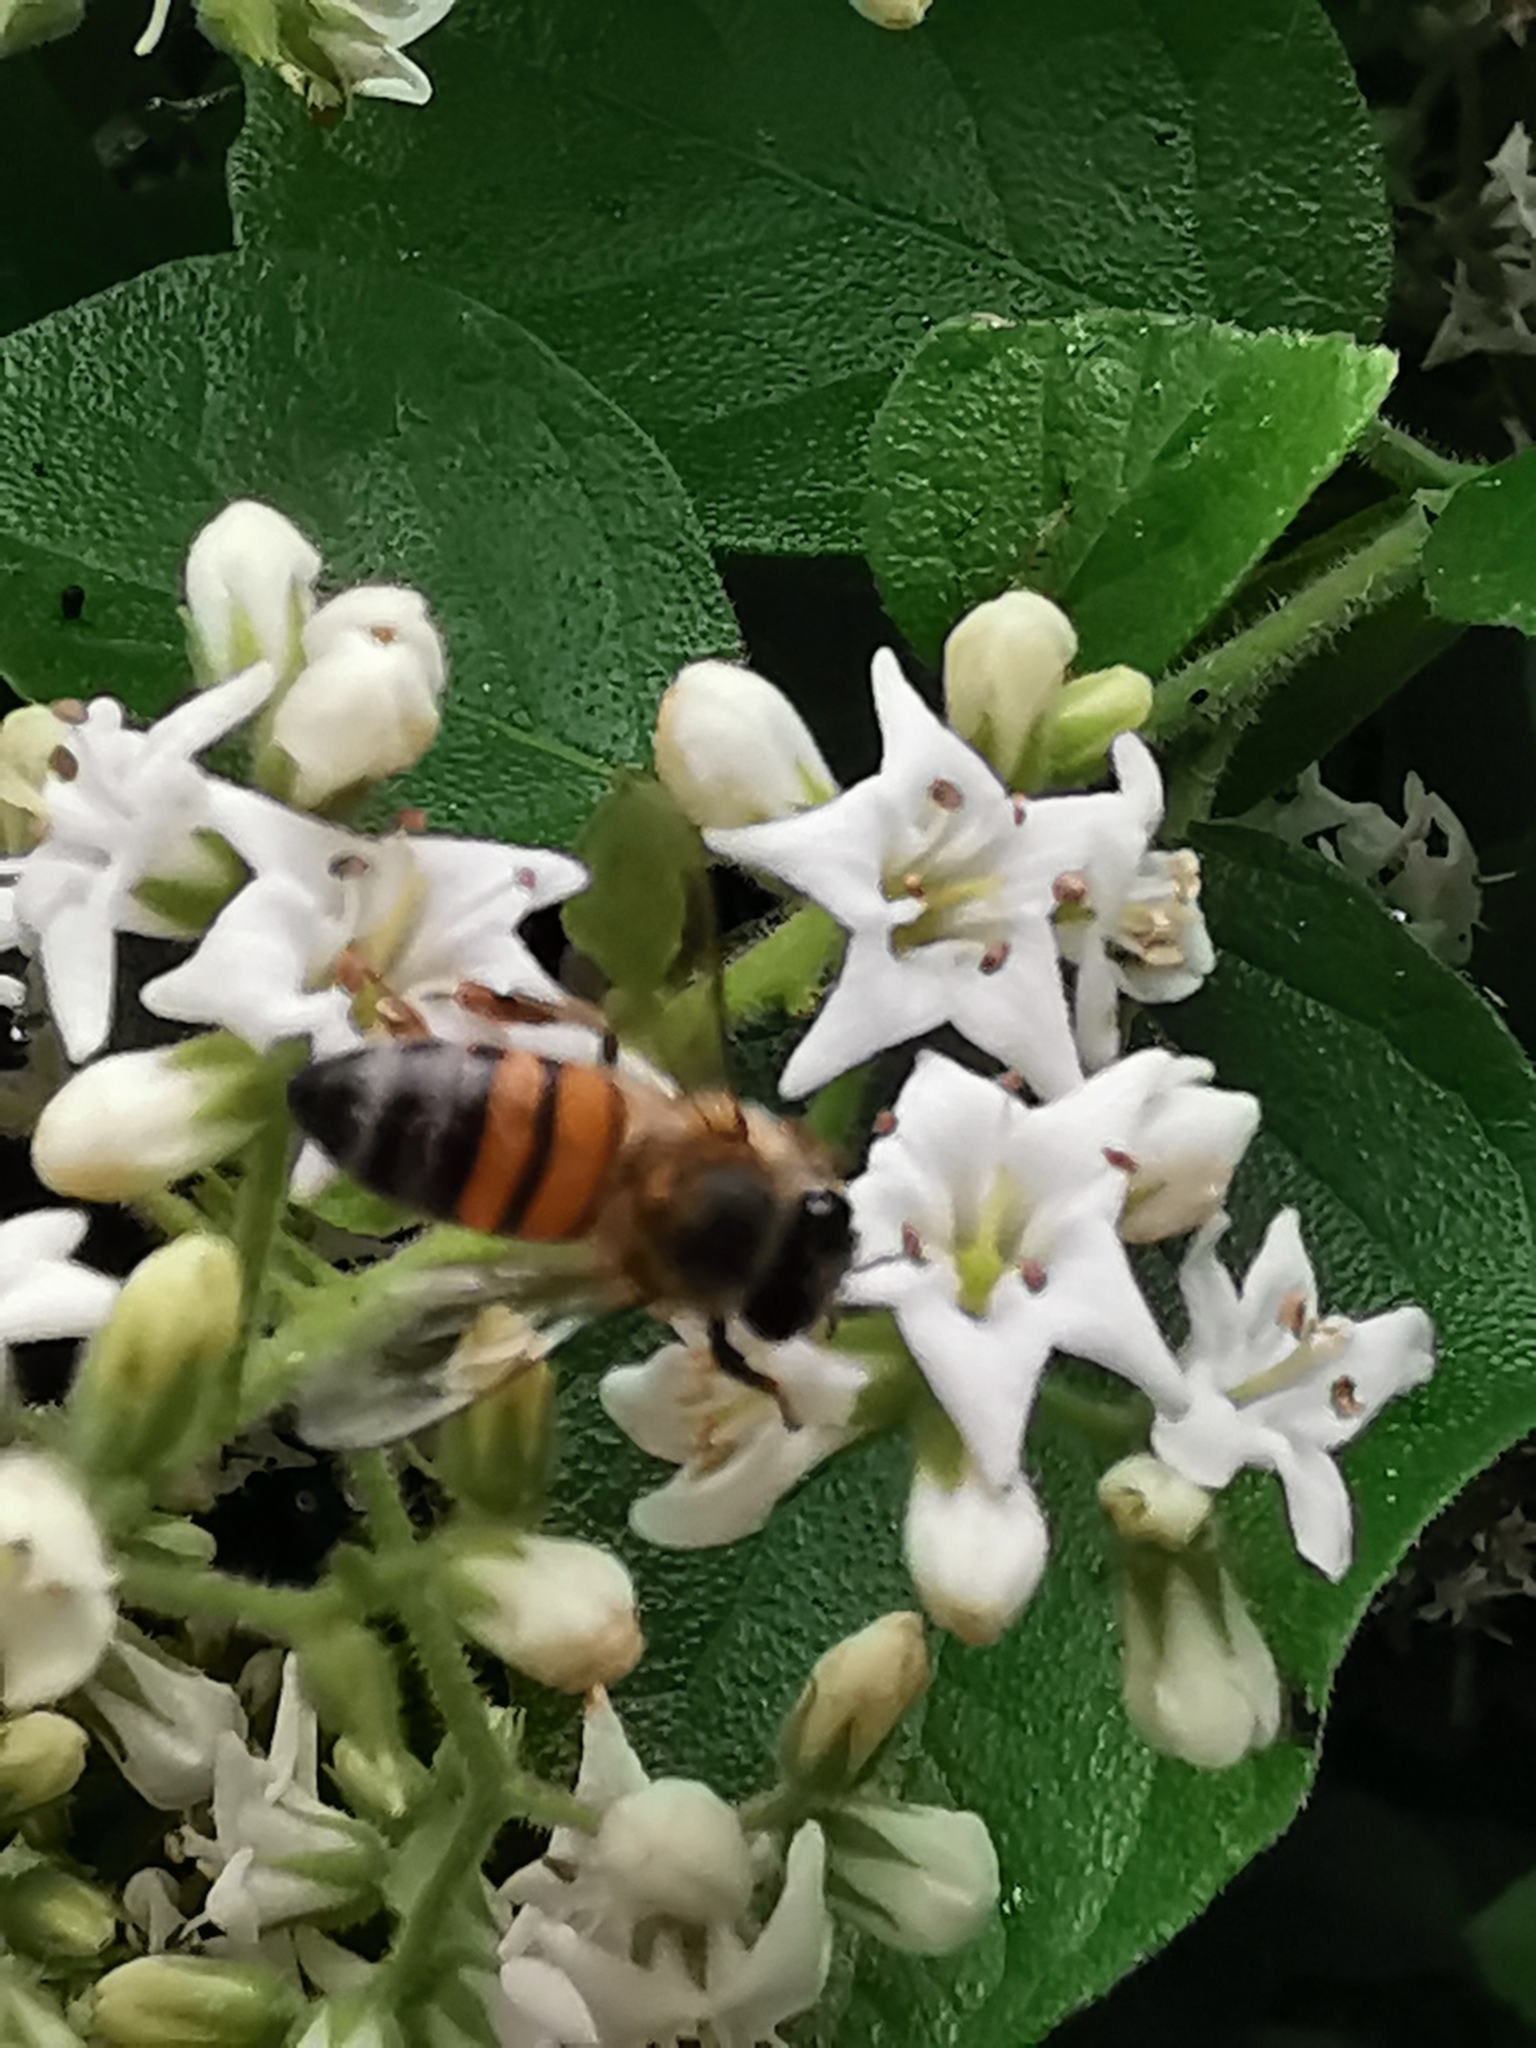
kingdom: Animalia
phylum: Arthropoda
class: Insecta
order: Hymenoptera
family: Apidae
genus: Apis
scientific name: Apis mellifera
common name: Honey bee
